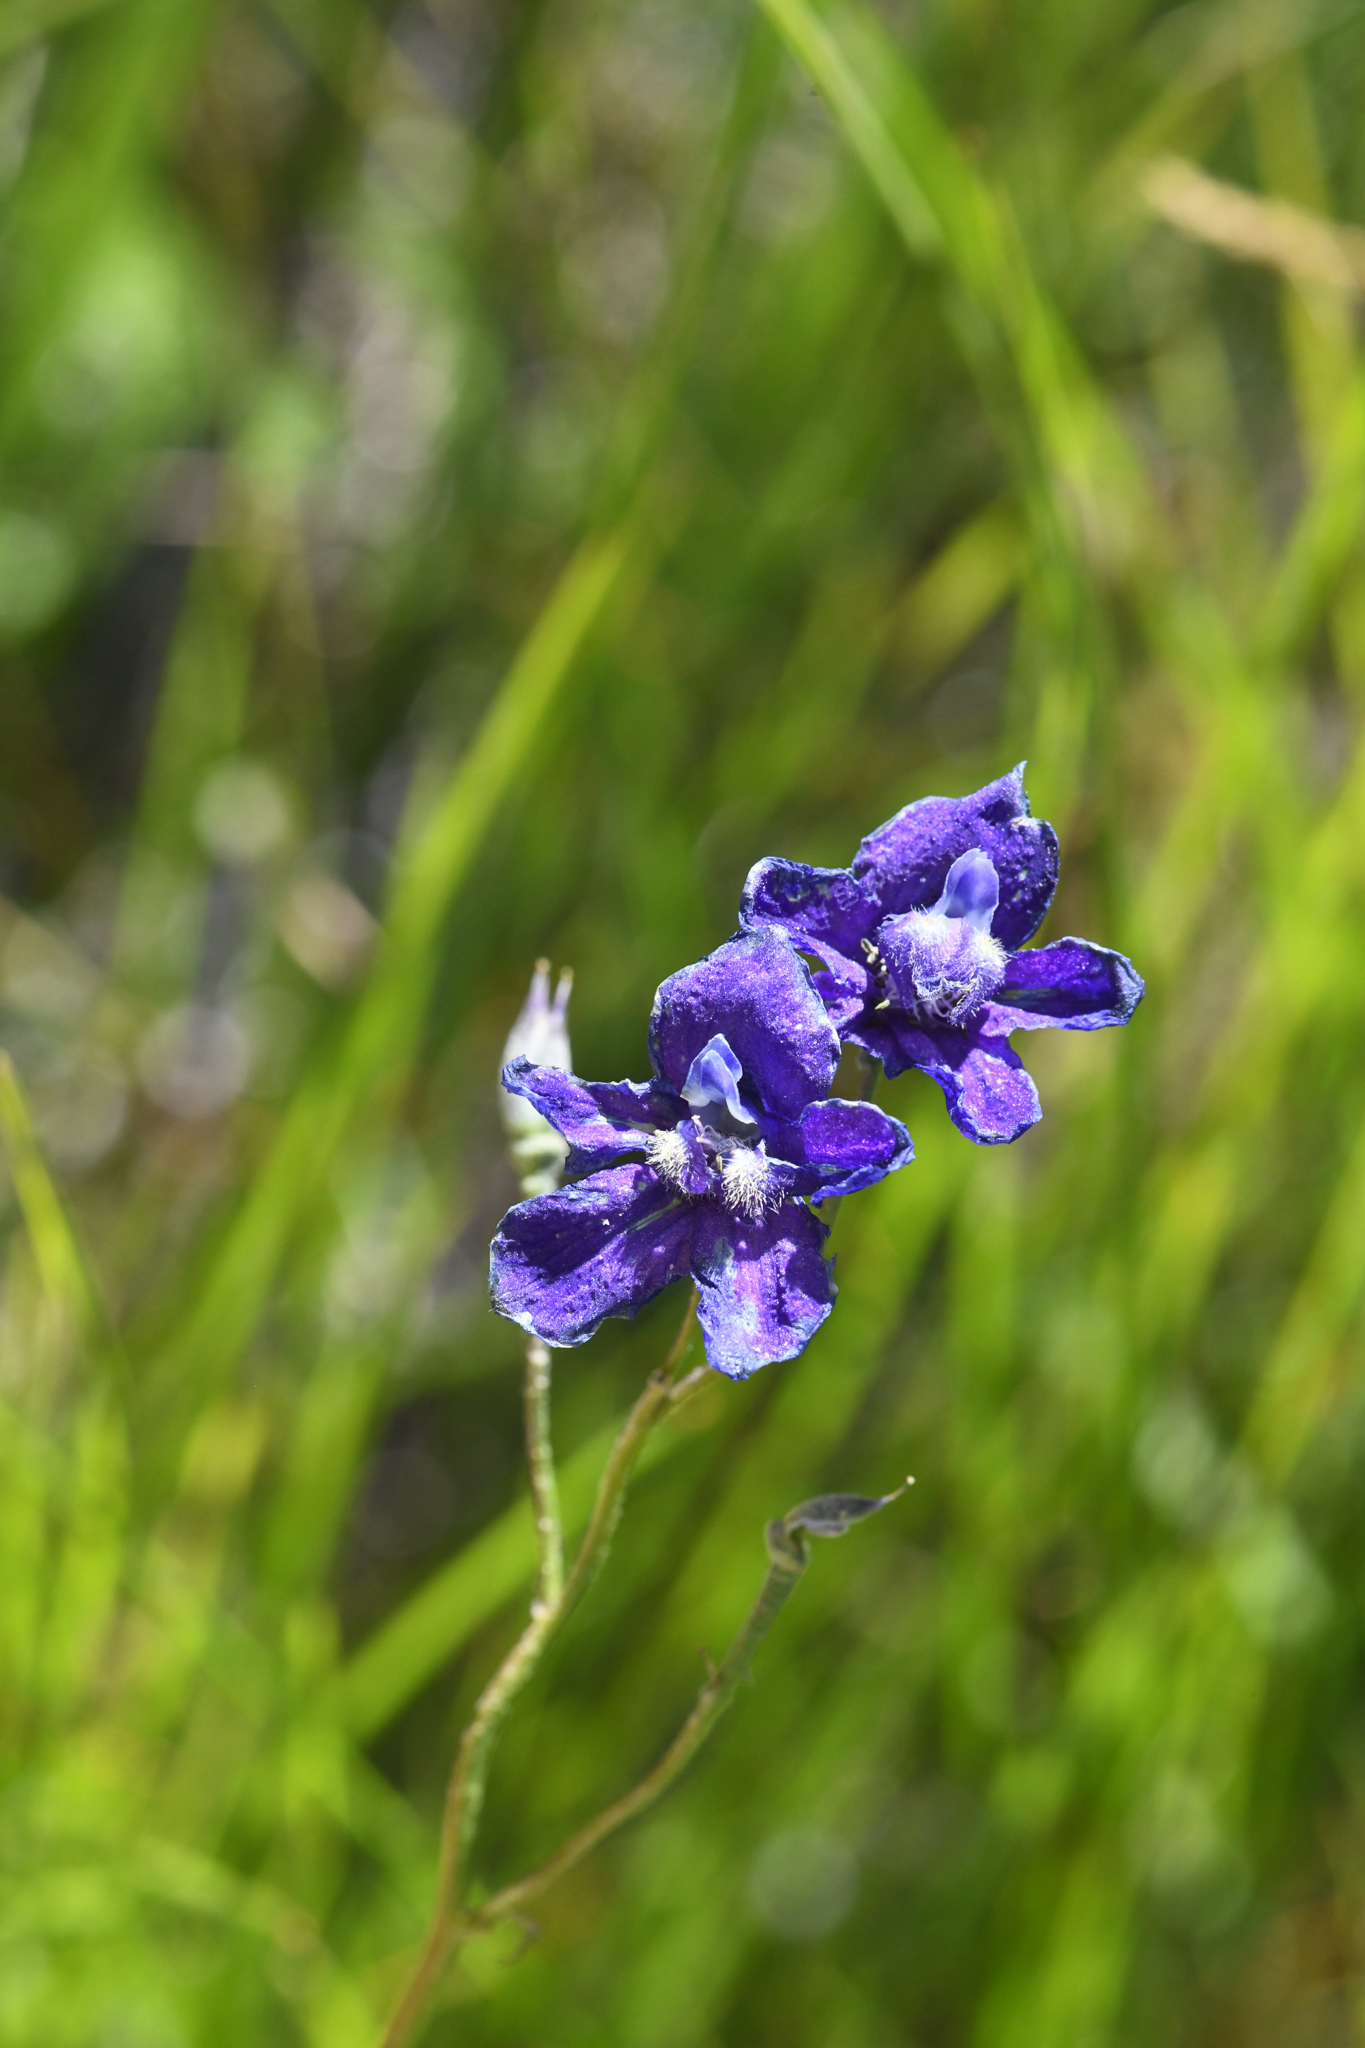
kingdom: Plantae
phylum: Tracheophyta
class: Magnoliopsida
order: Ranunculales
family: Ranunculaceae
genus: Delphinium
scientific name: Delphinium polycladon
